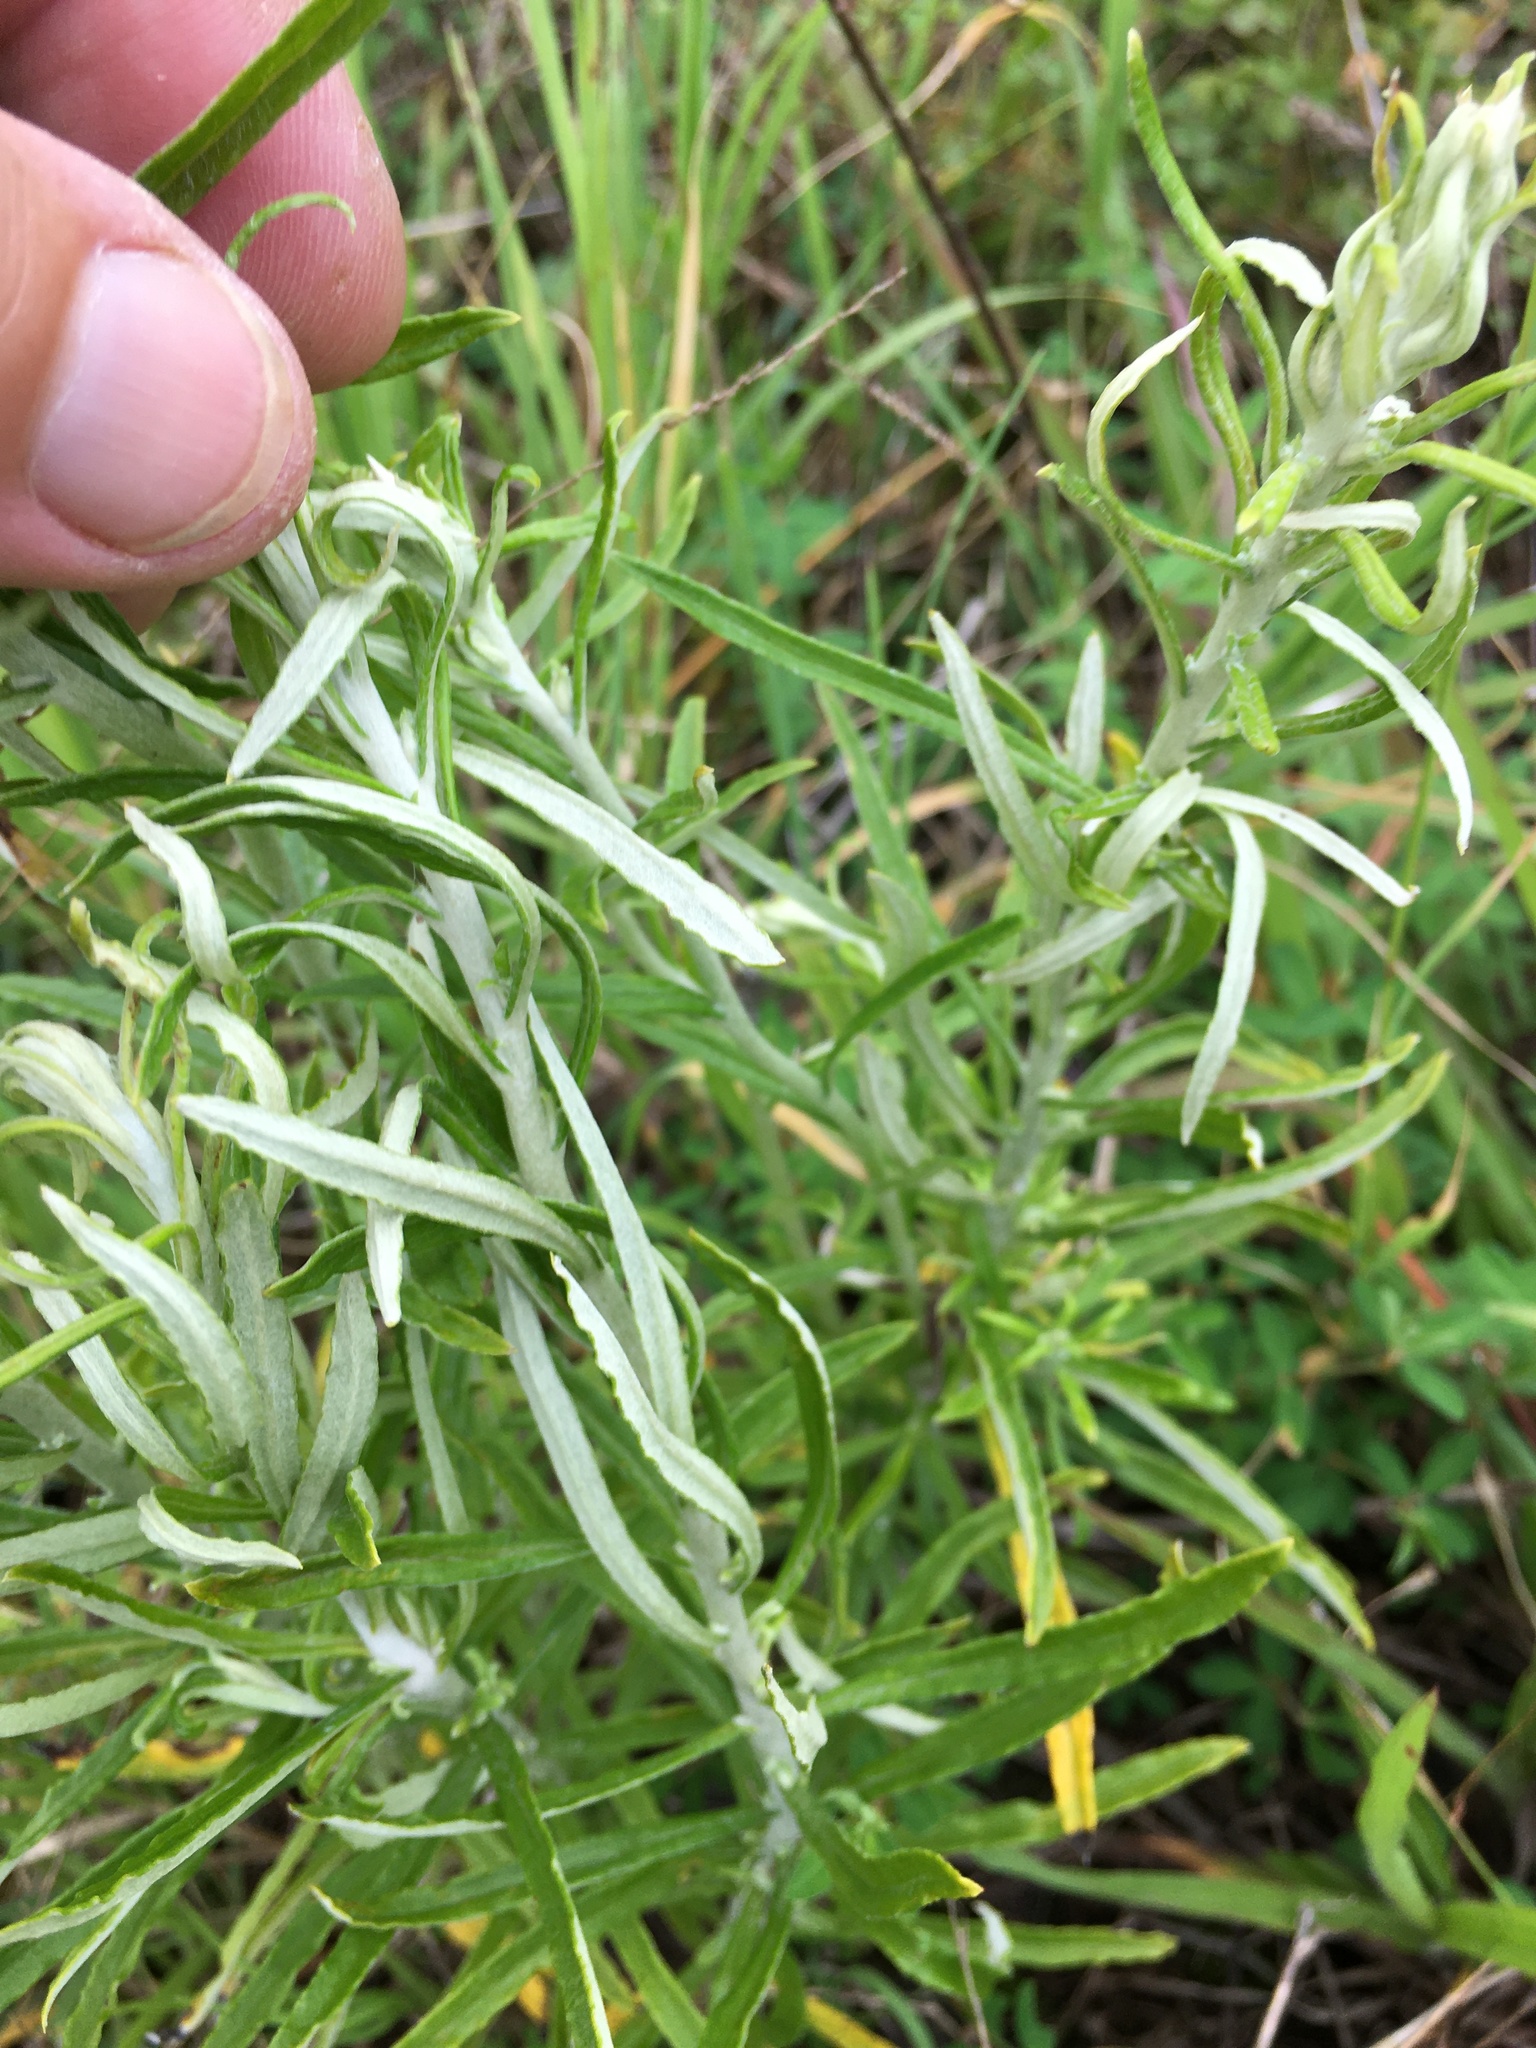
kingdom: Plantae
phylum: Tracheophyta
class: Magnoliopsida
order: Asterales
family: Asteraceae
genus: Pseudognaphalium
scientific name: Pseudognaphalium obtusifolium
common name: Eastern rabbit-tobacco
